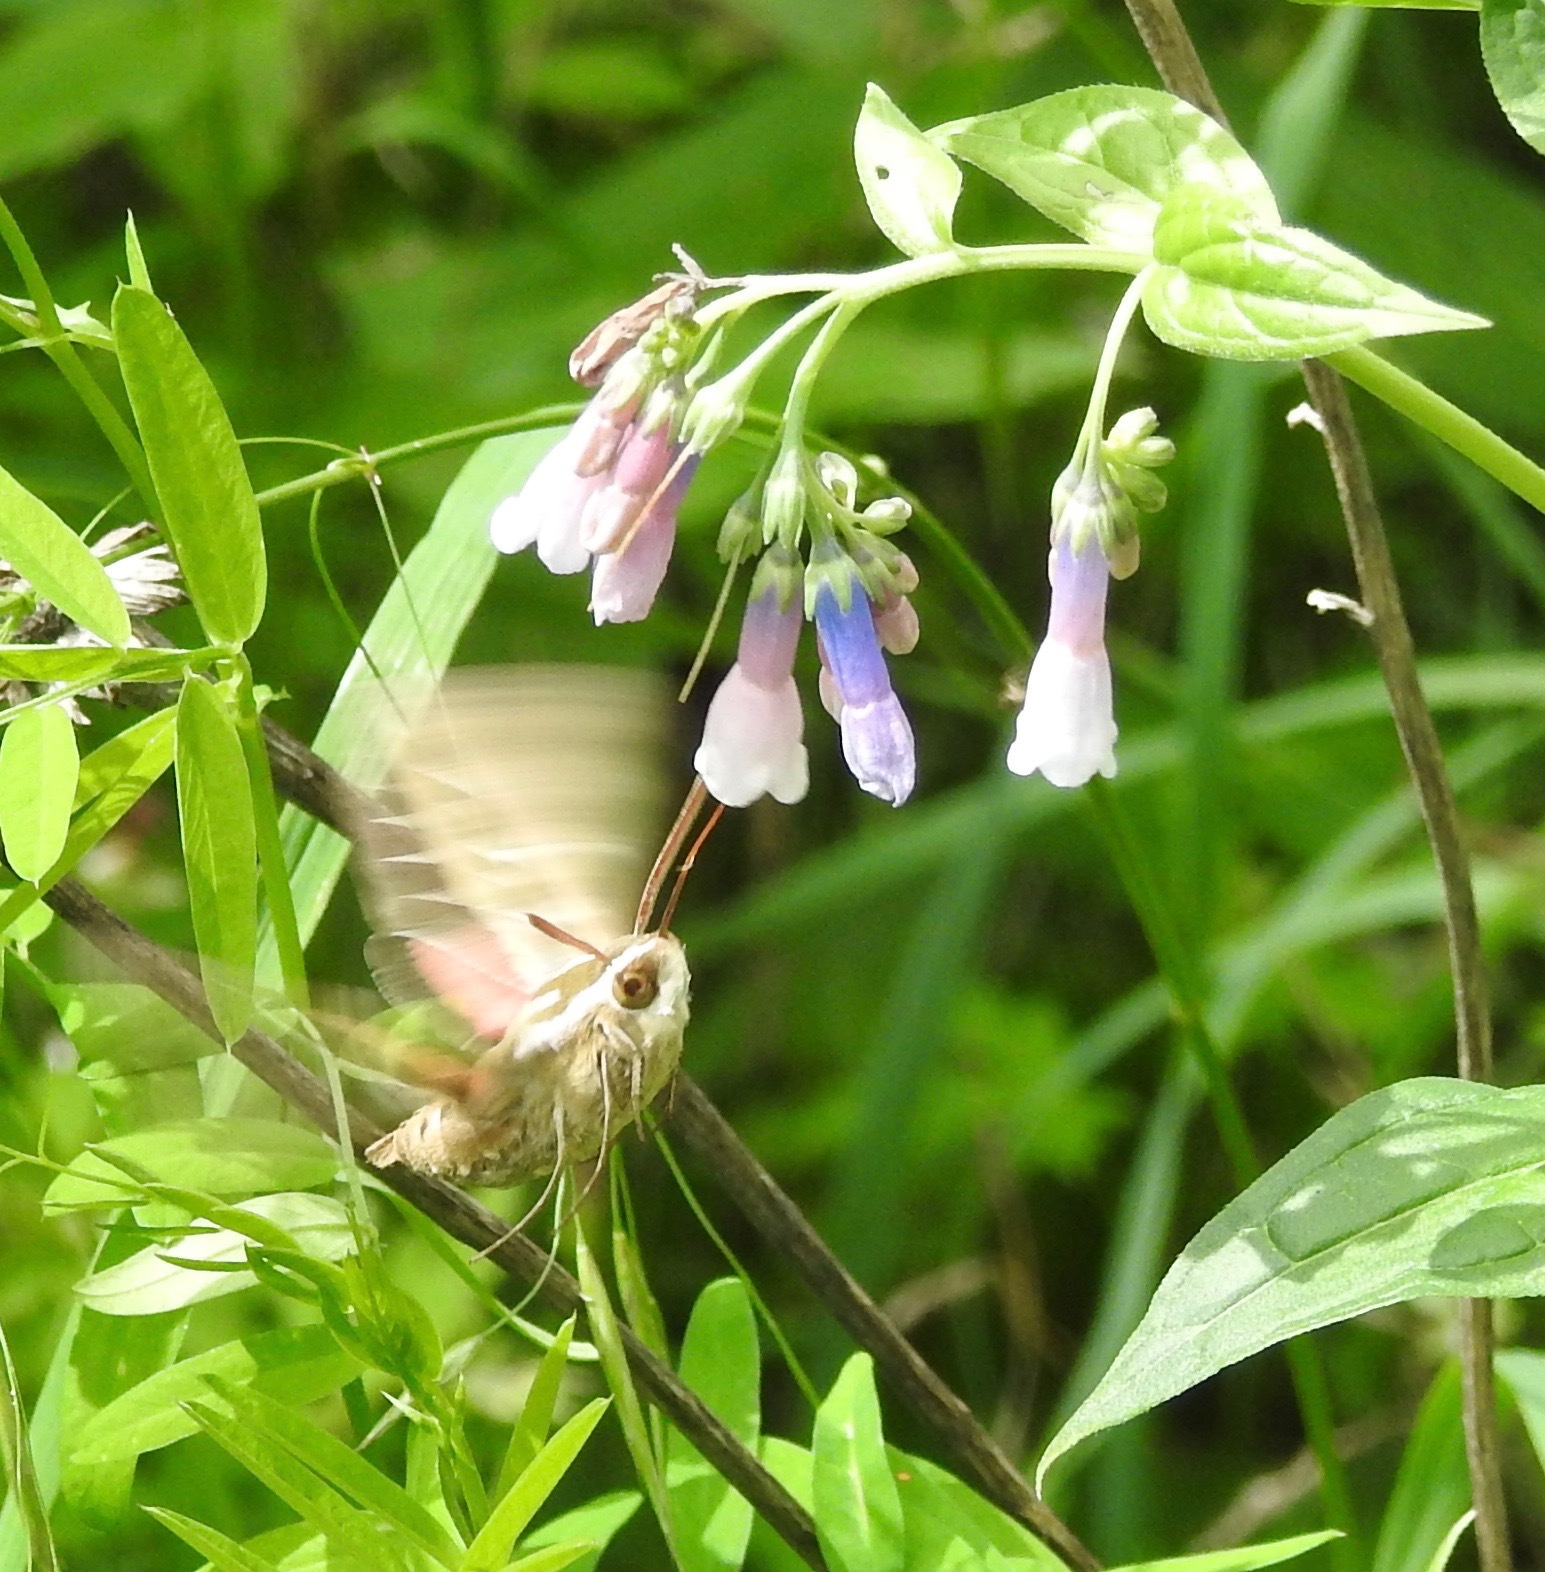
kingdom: Animalia
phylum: Arthropoda
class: Insecta
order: Lepidoptera
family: Sphingidae
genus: Hyles
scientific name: Hyles lineata
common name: White-lined sphinx
